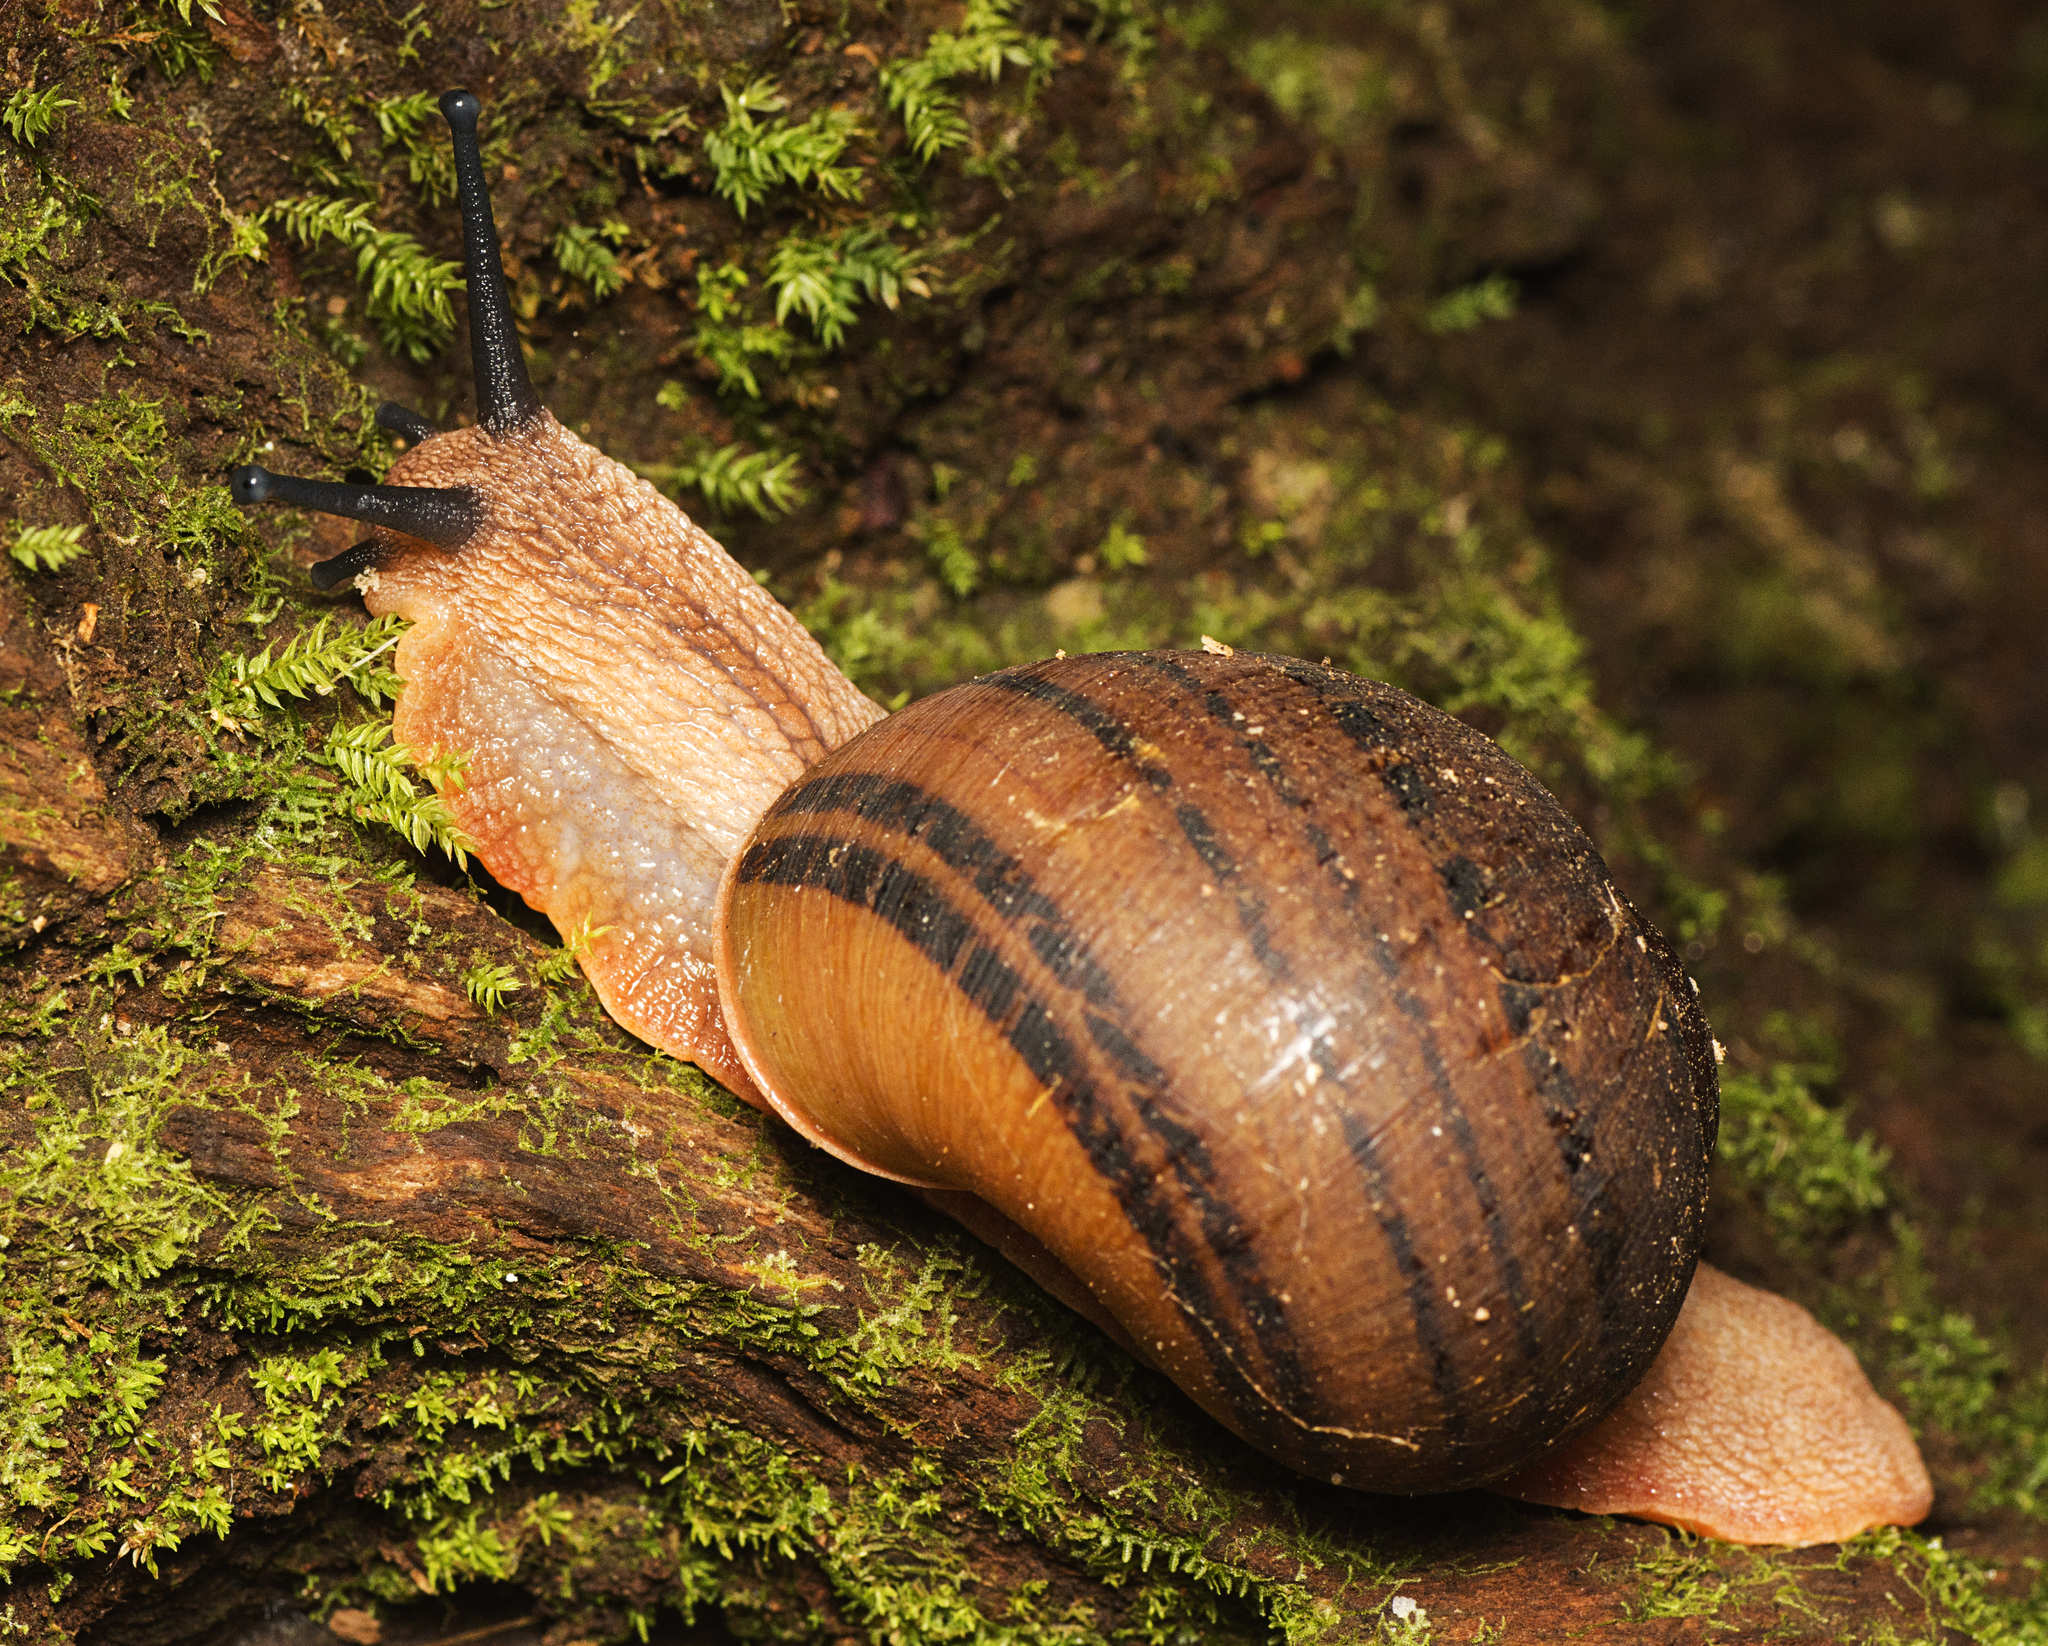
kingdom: Animalia
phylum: Mollusca
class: Gastropoda
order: Stylommatophora
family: Caryodidae
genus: Hedleyella
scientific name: Hedleyella falconeri
